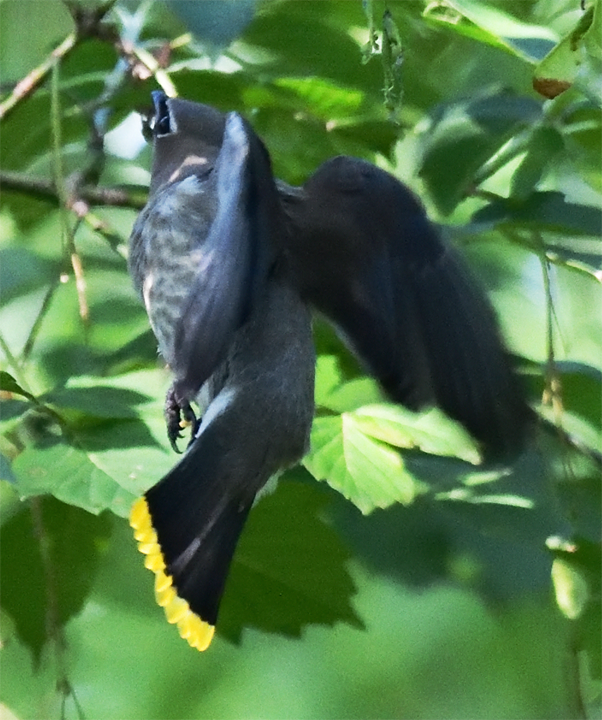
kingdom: Animalia
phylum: Chordata
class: Aves
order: Passeriformes
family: Bombycillidae
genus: Bombycilla
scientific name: Bombycilla cedrorum
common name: Cedar waxwing
